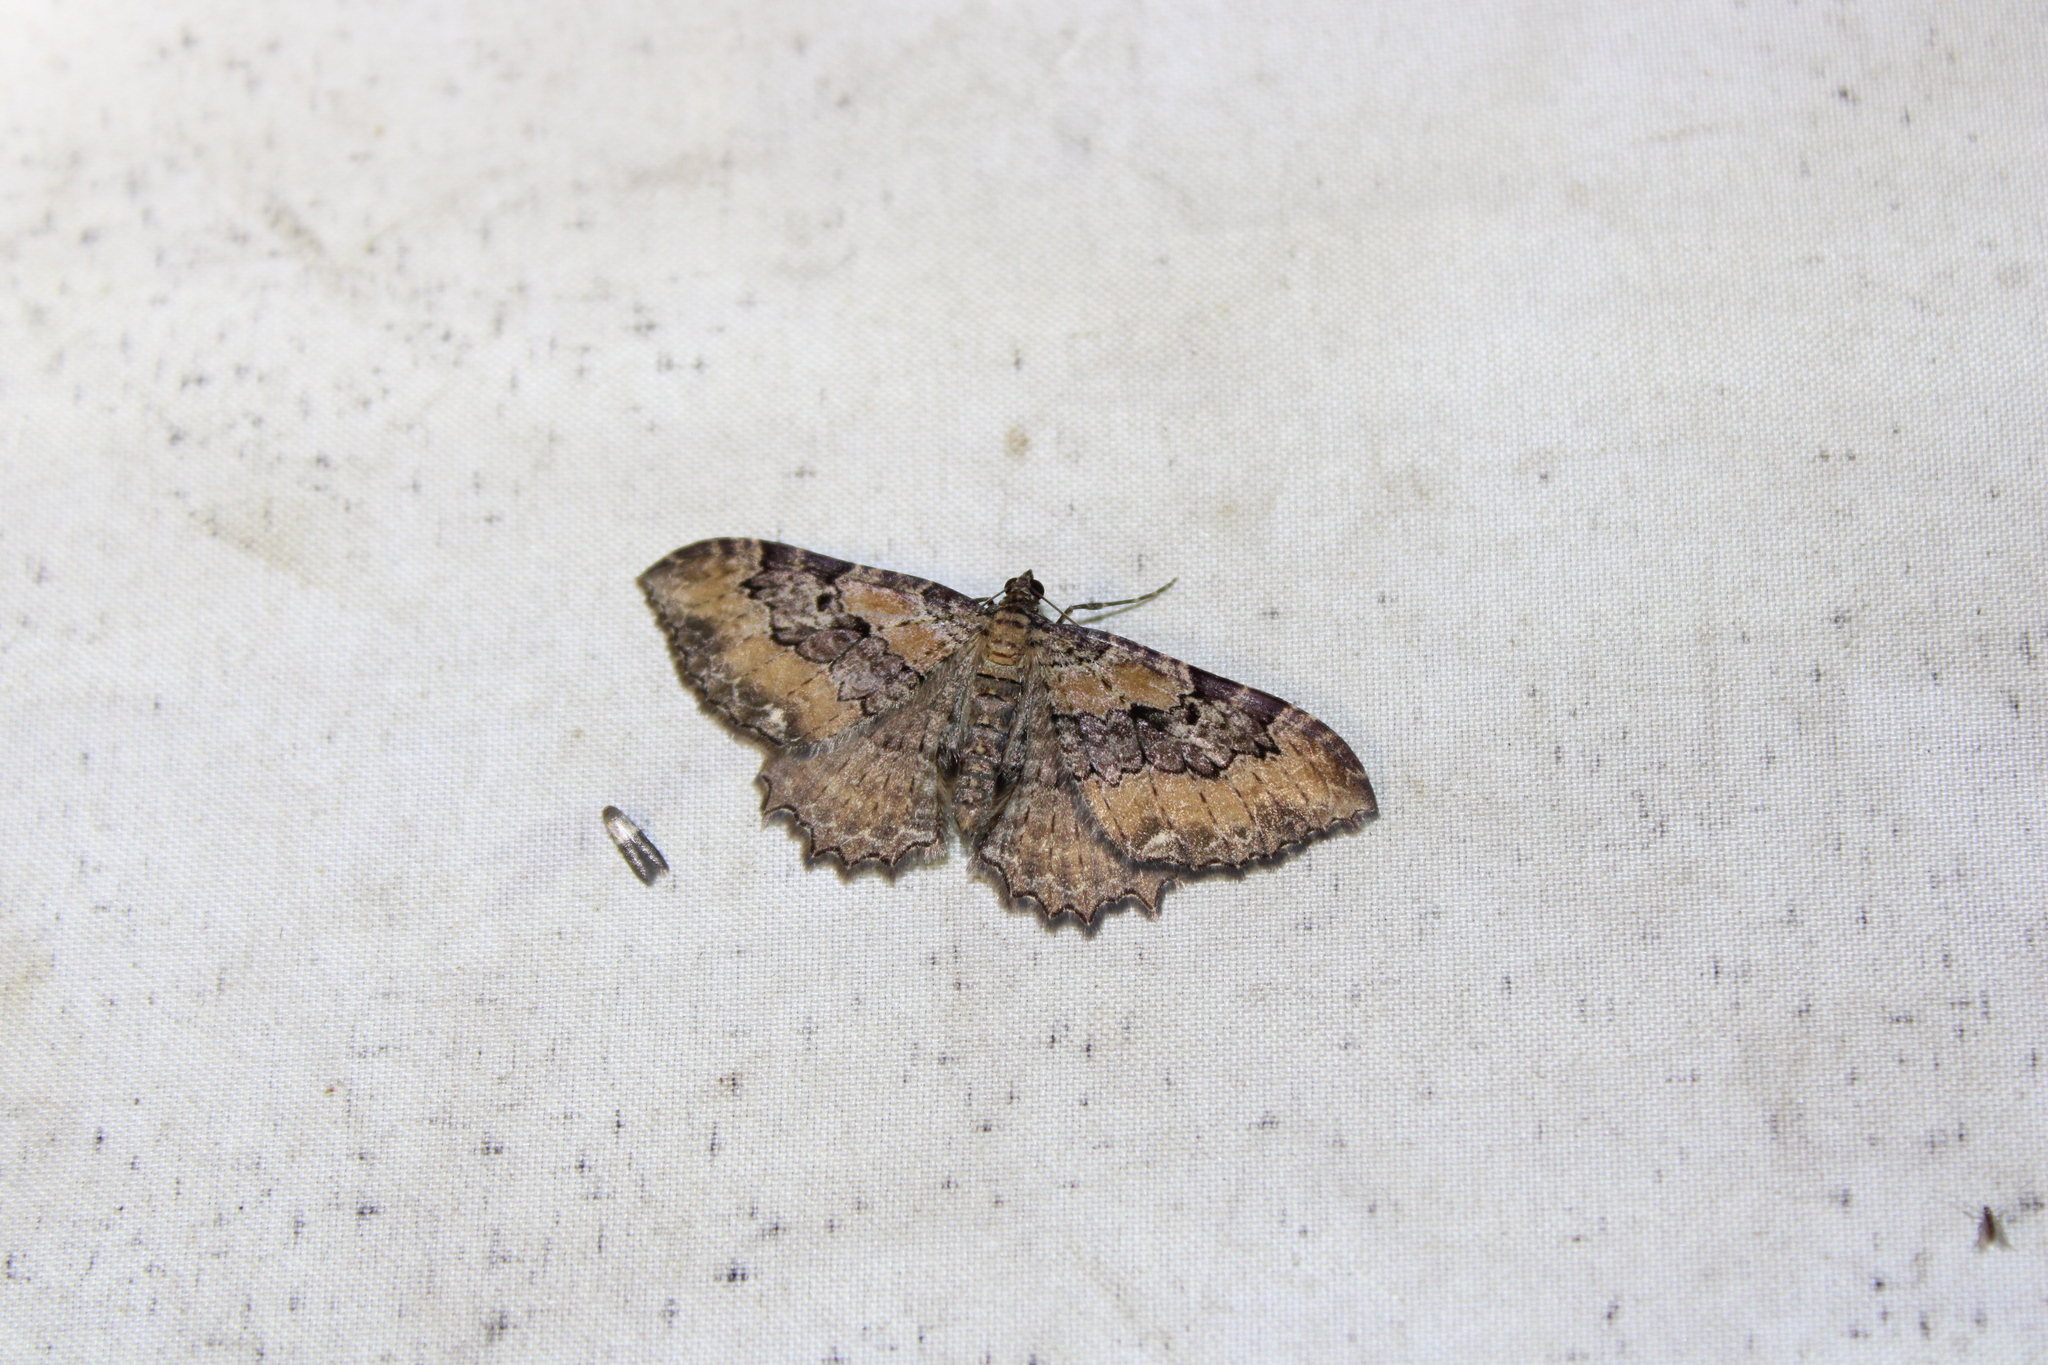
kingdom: Animalia
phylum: Arthropoda
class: Insecta
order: Lepidoptera
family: Geometridae
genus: Rheumaptera
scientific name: Rheumaptera
